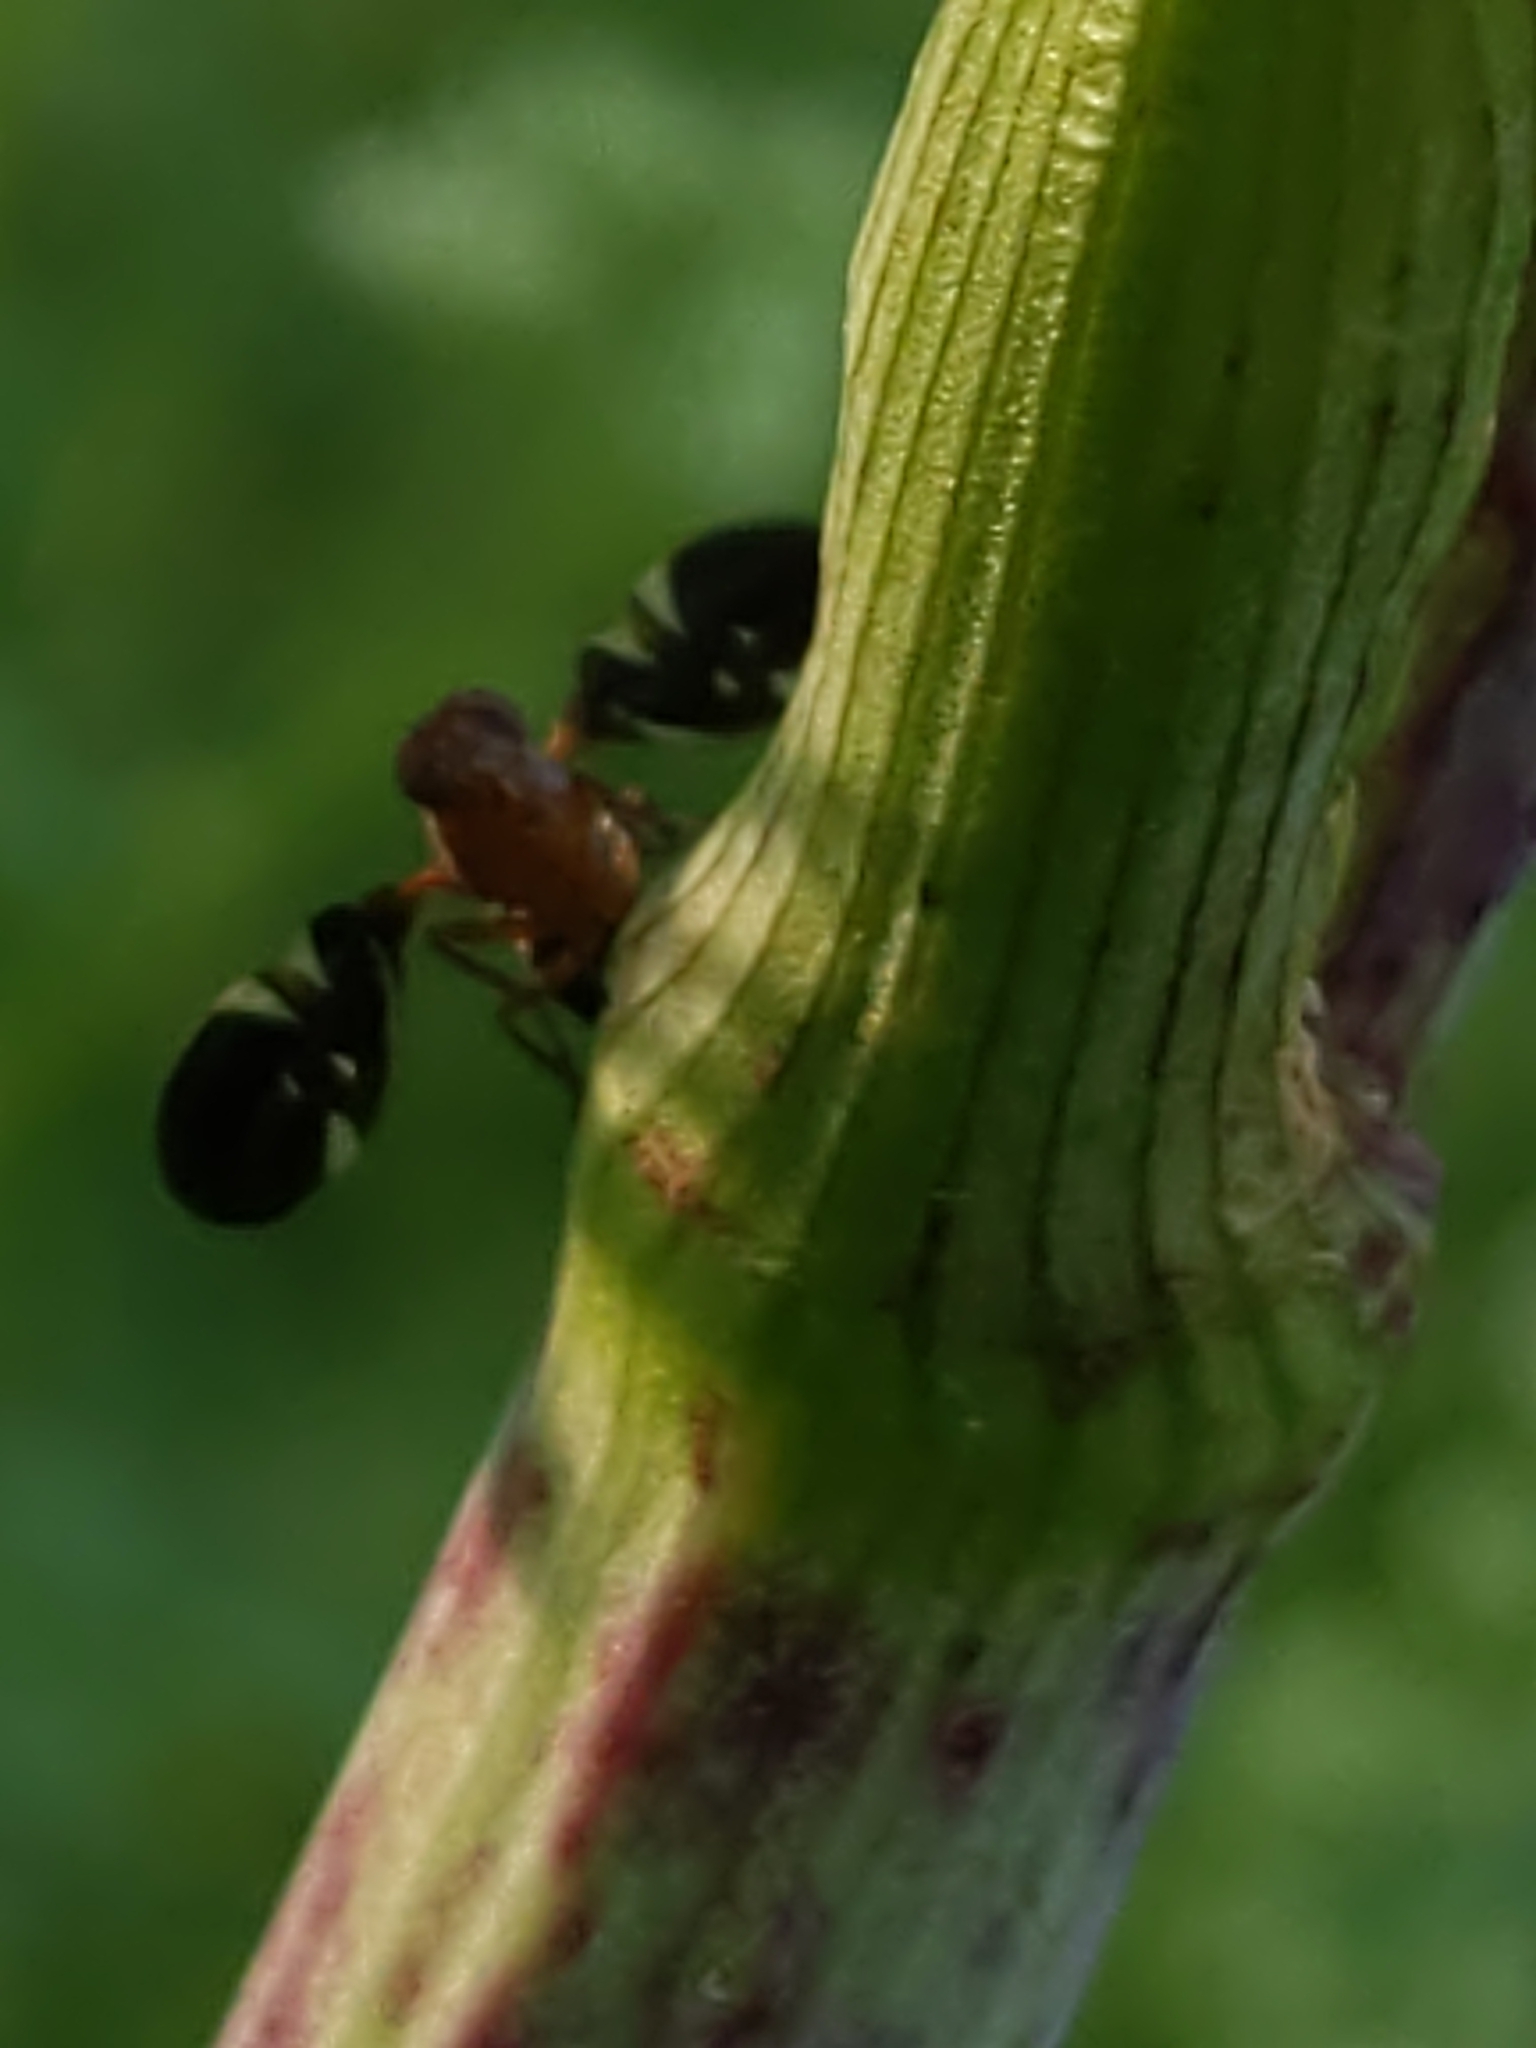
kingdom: Animalia
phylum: Arthropoda
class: Insecta
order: Diptera
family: Ulidiidae
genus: Delphinia
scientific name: Delphinia picta
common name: Common picture-winged fly
